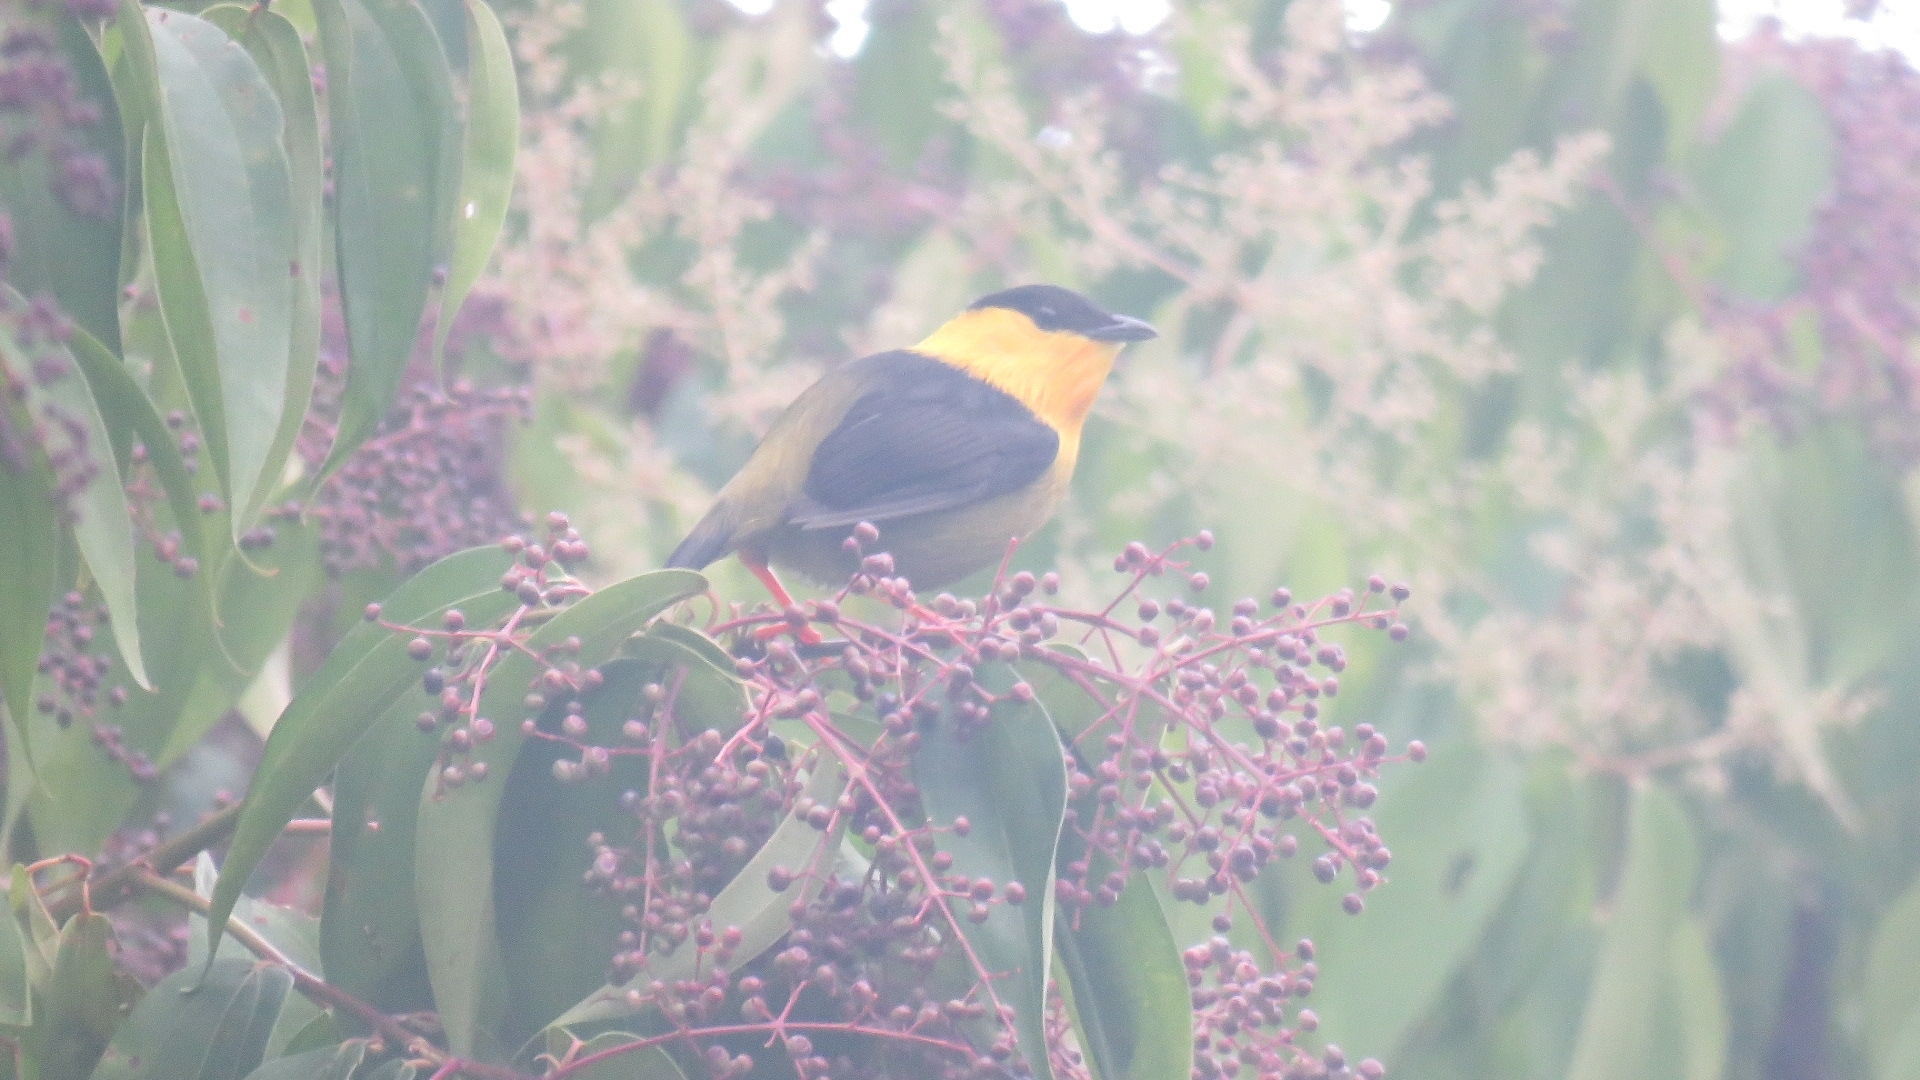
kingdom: Animalia
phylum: Chordata
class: Aves
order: Passeriformes
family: Pipridae
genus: Manacus
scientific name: Manacus vitellinus
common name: Golden-collared manakin
